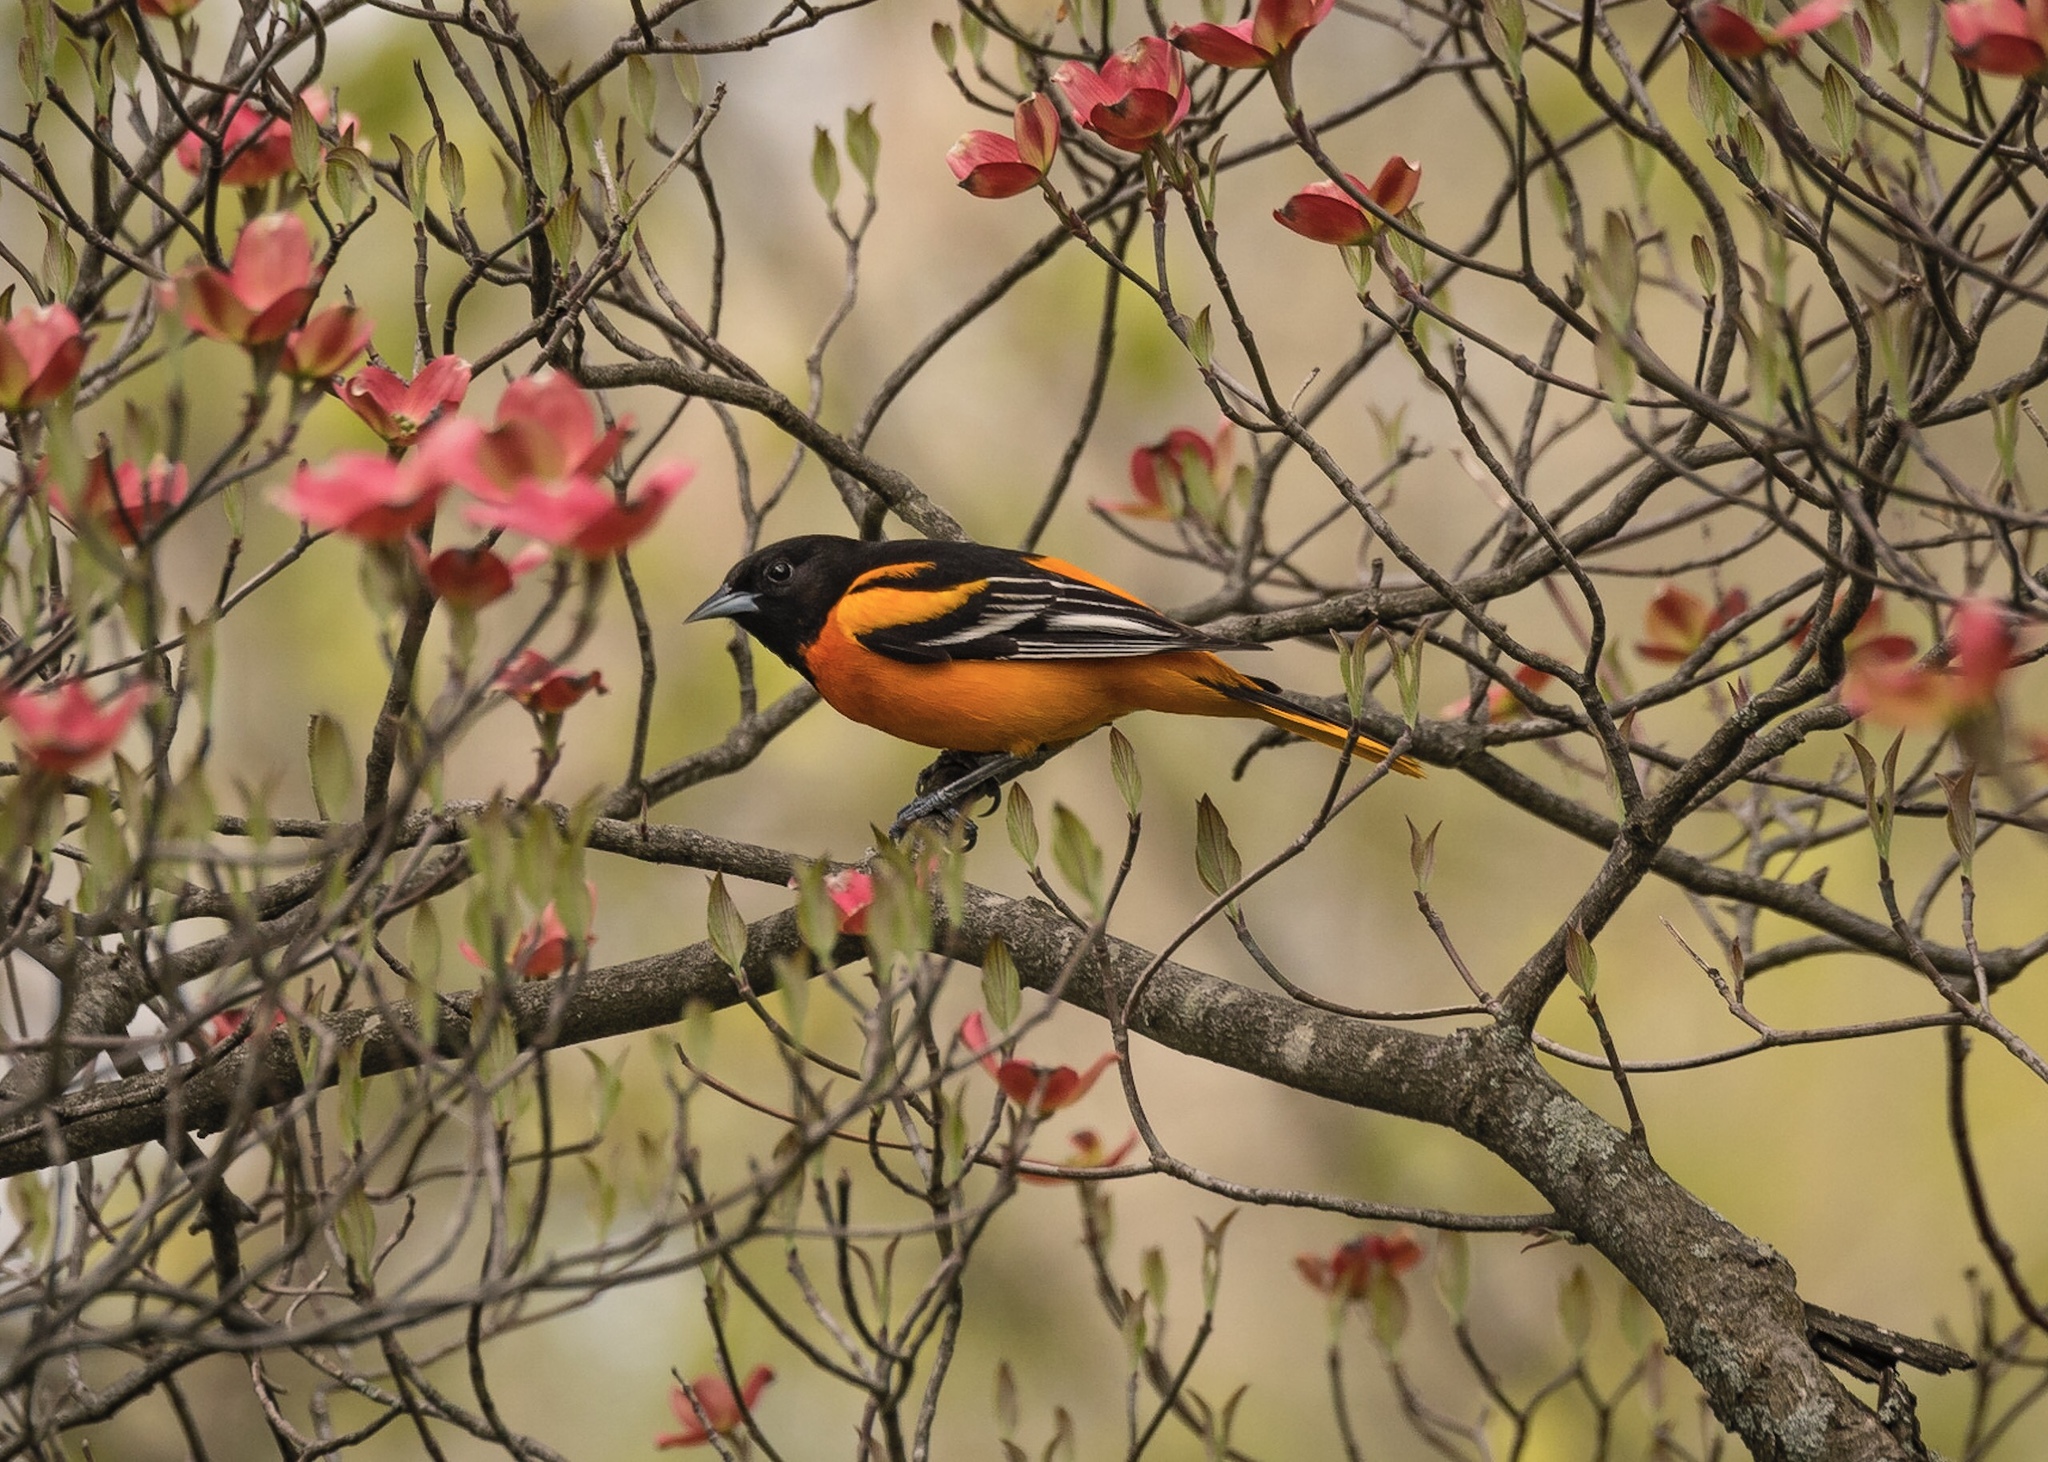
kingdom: Animalia
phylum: Chordata
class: Aves
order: Passeriformes
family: Icteridae
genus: Icterus
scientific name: Icterus galbula
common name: Baltimore oriole
